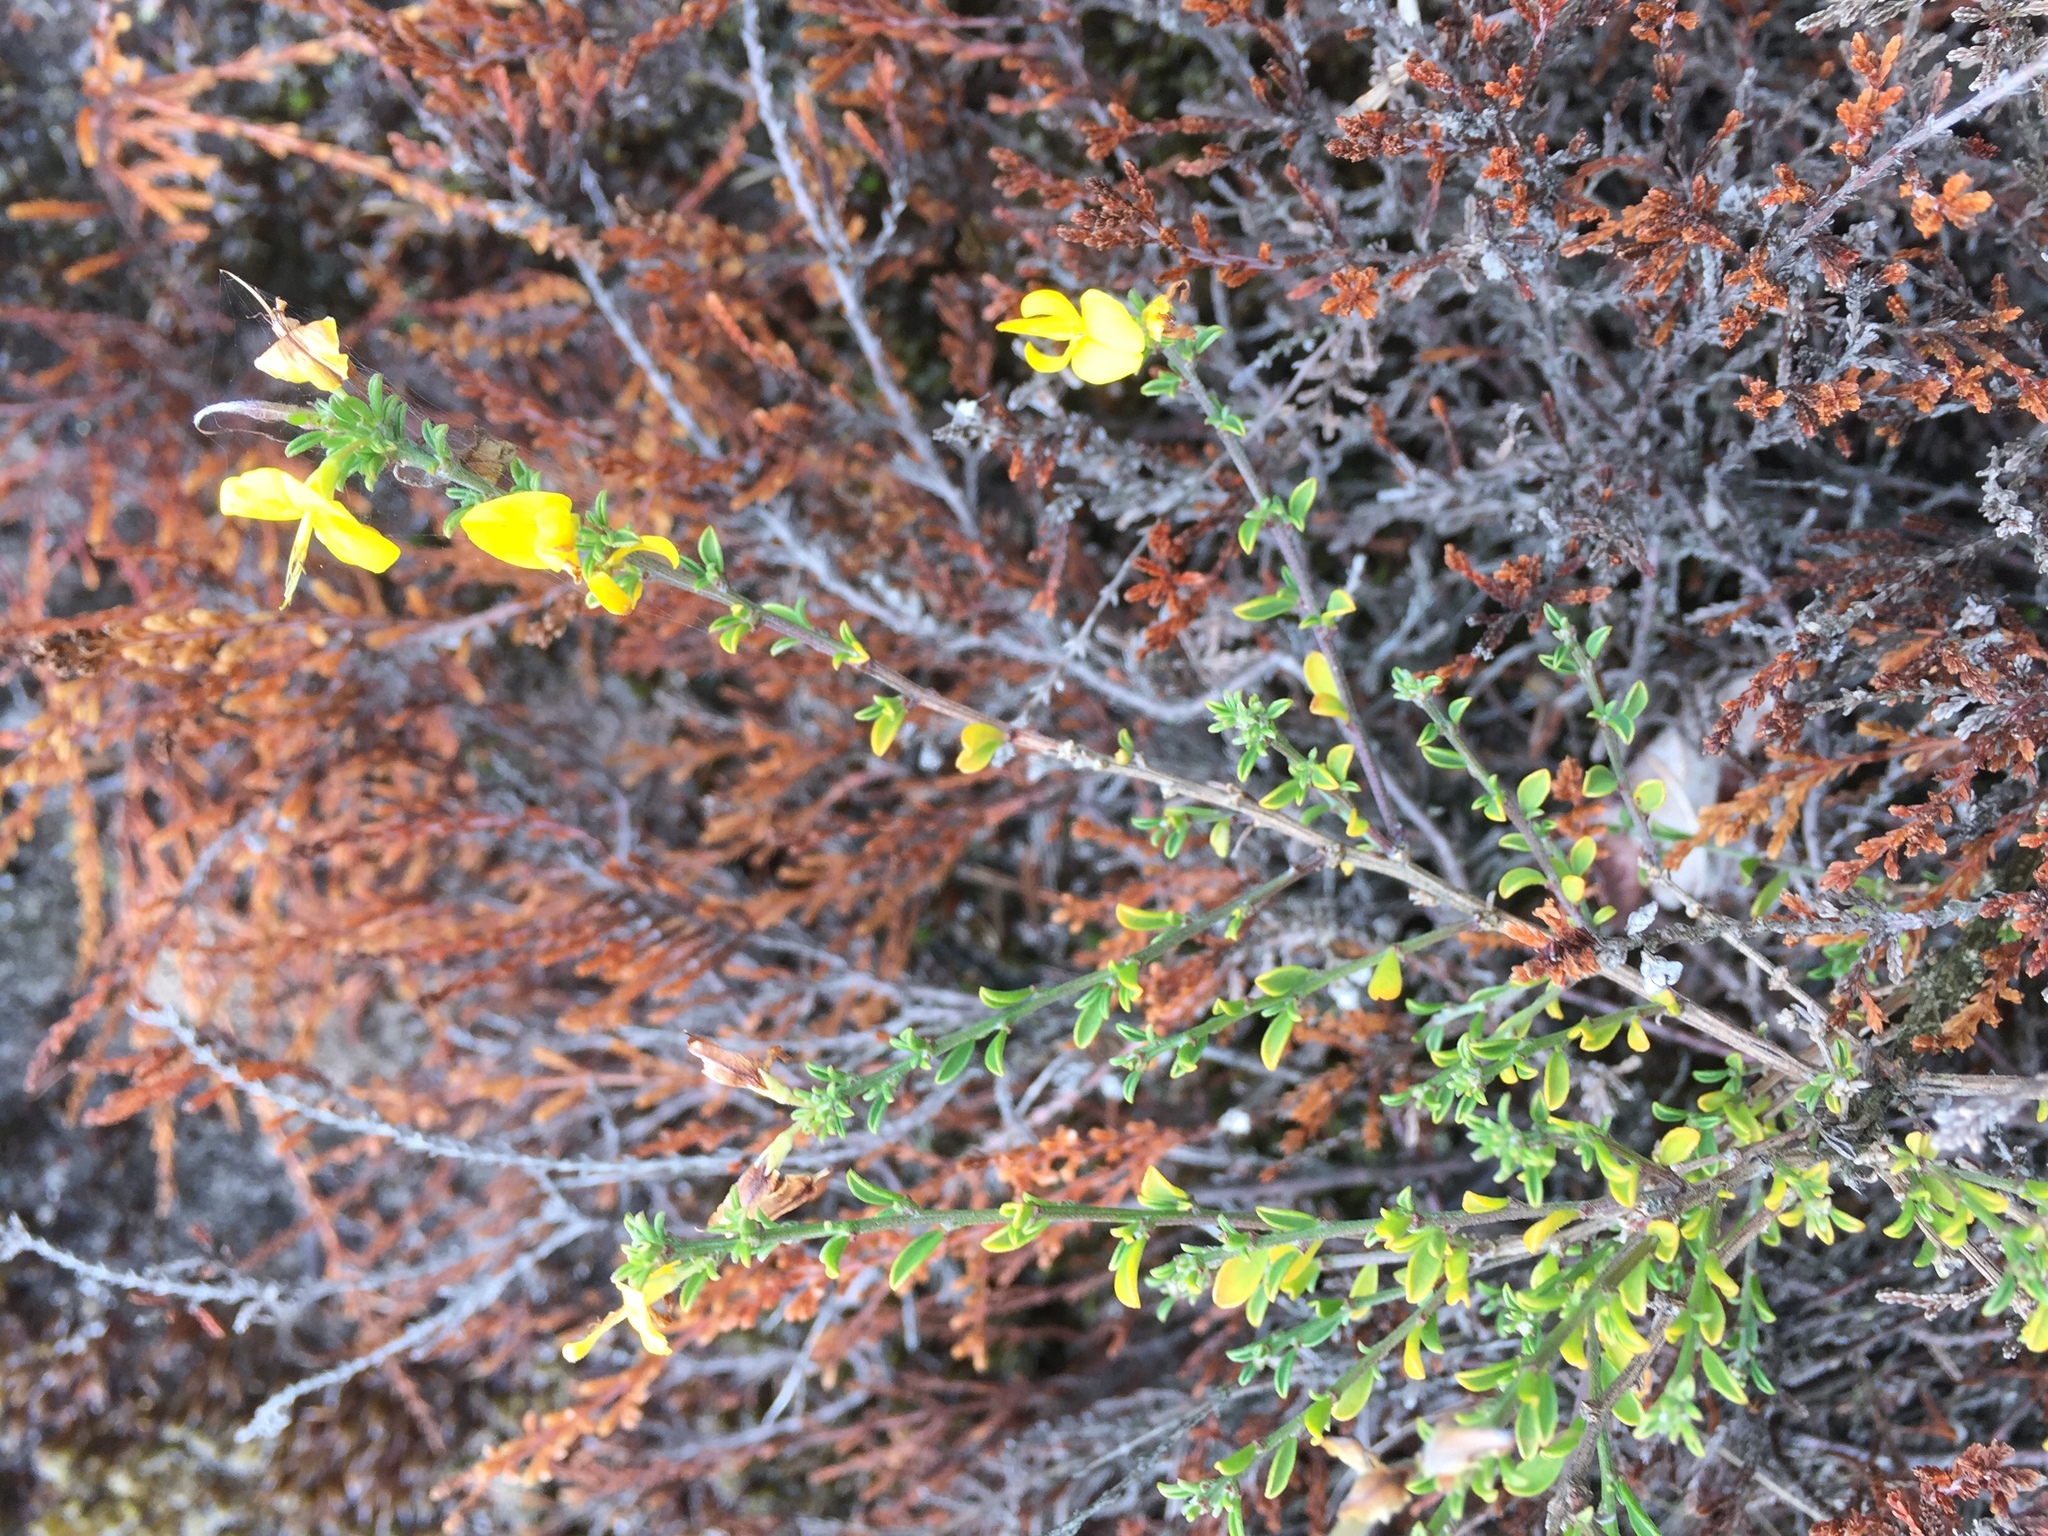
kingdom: Plantae
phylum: Tracheophyta
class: Magnoliopsida
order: Fabales
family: Fabaceae
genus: Genista
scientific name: Genista pilosa
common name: Hairy greenweed
